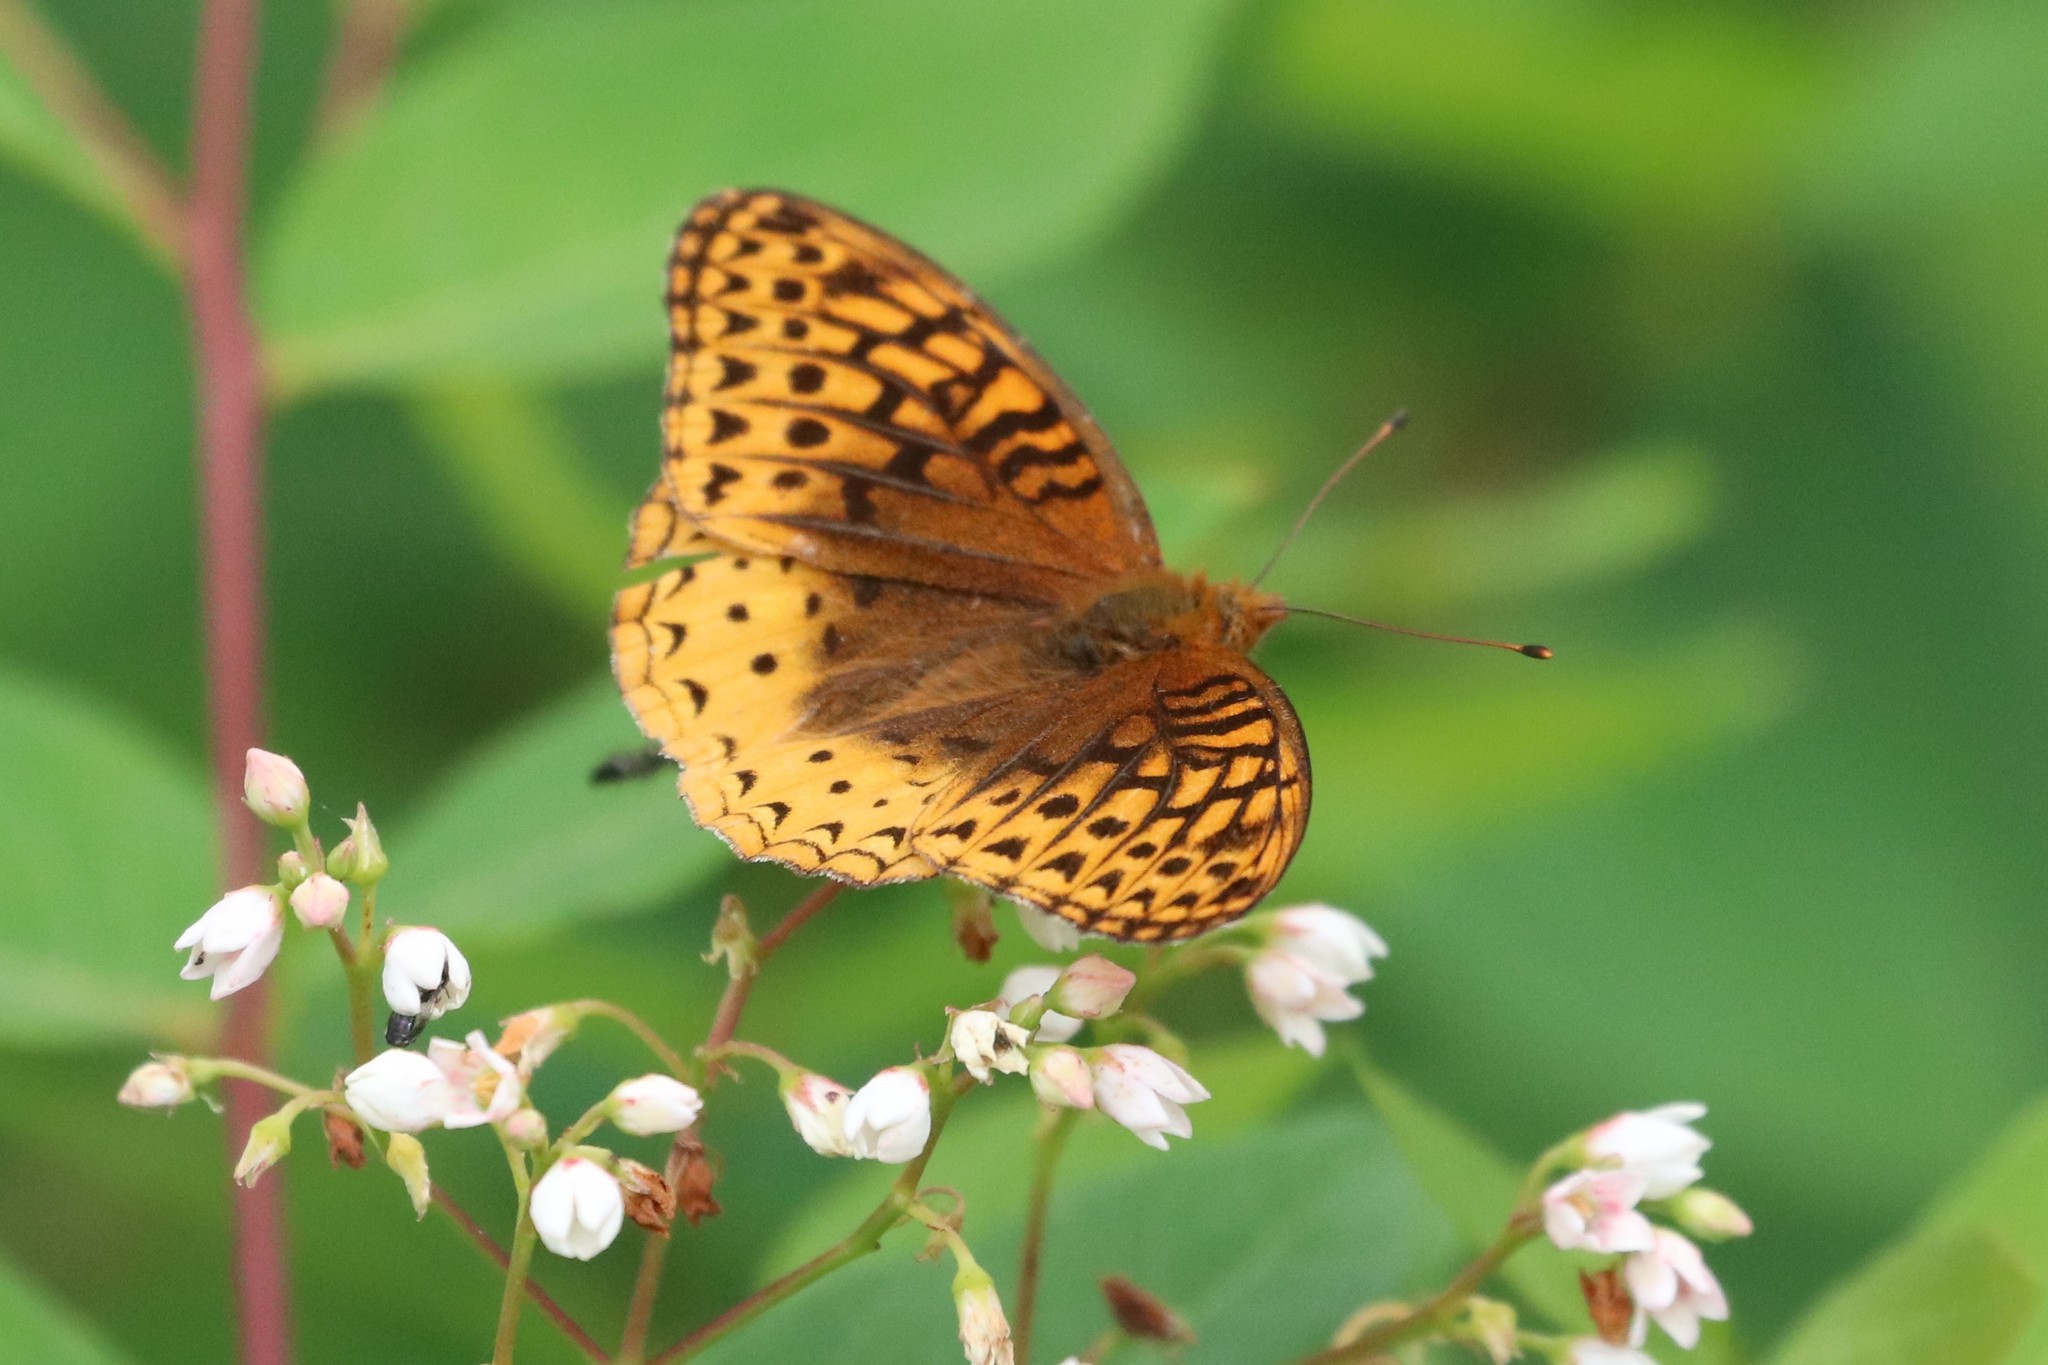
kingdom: Animalia
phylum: Arthropoda
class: Insecta
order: Lepidoptera
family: Nymphalidae
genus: Speyeria
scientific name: Speyeria cybele
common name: Great spangled fritillary
